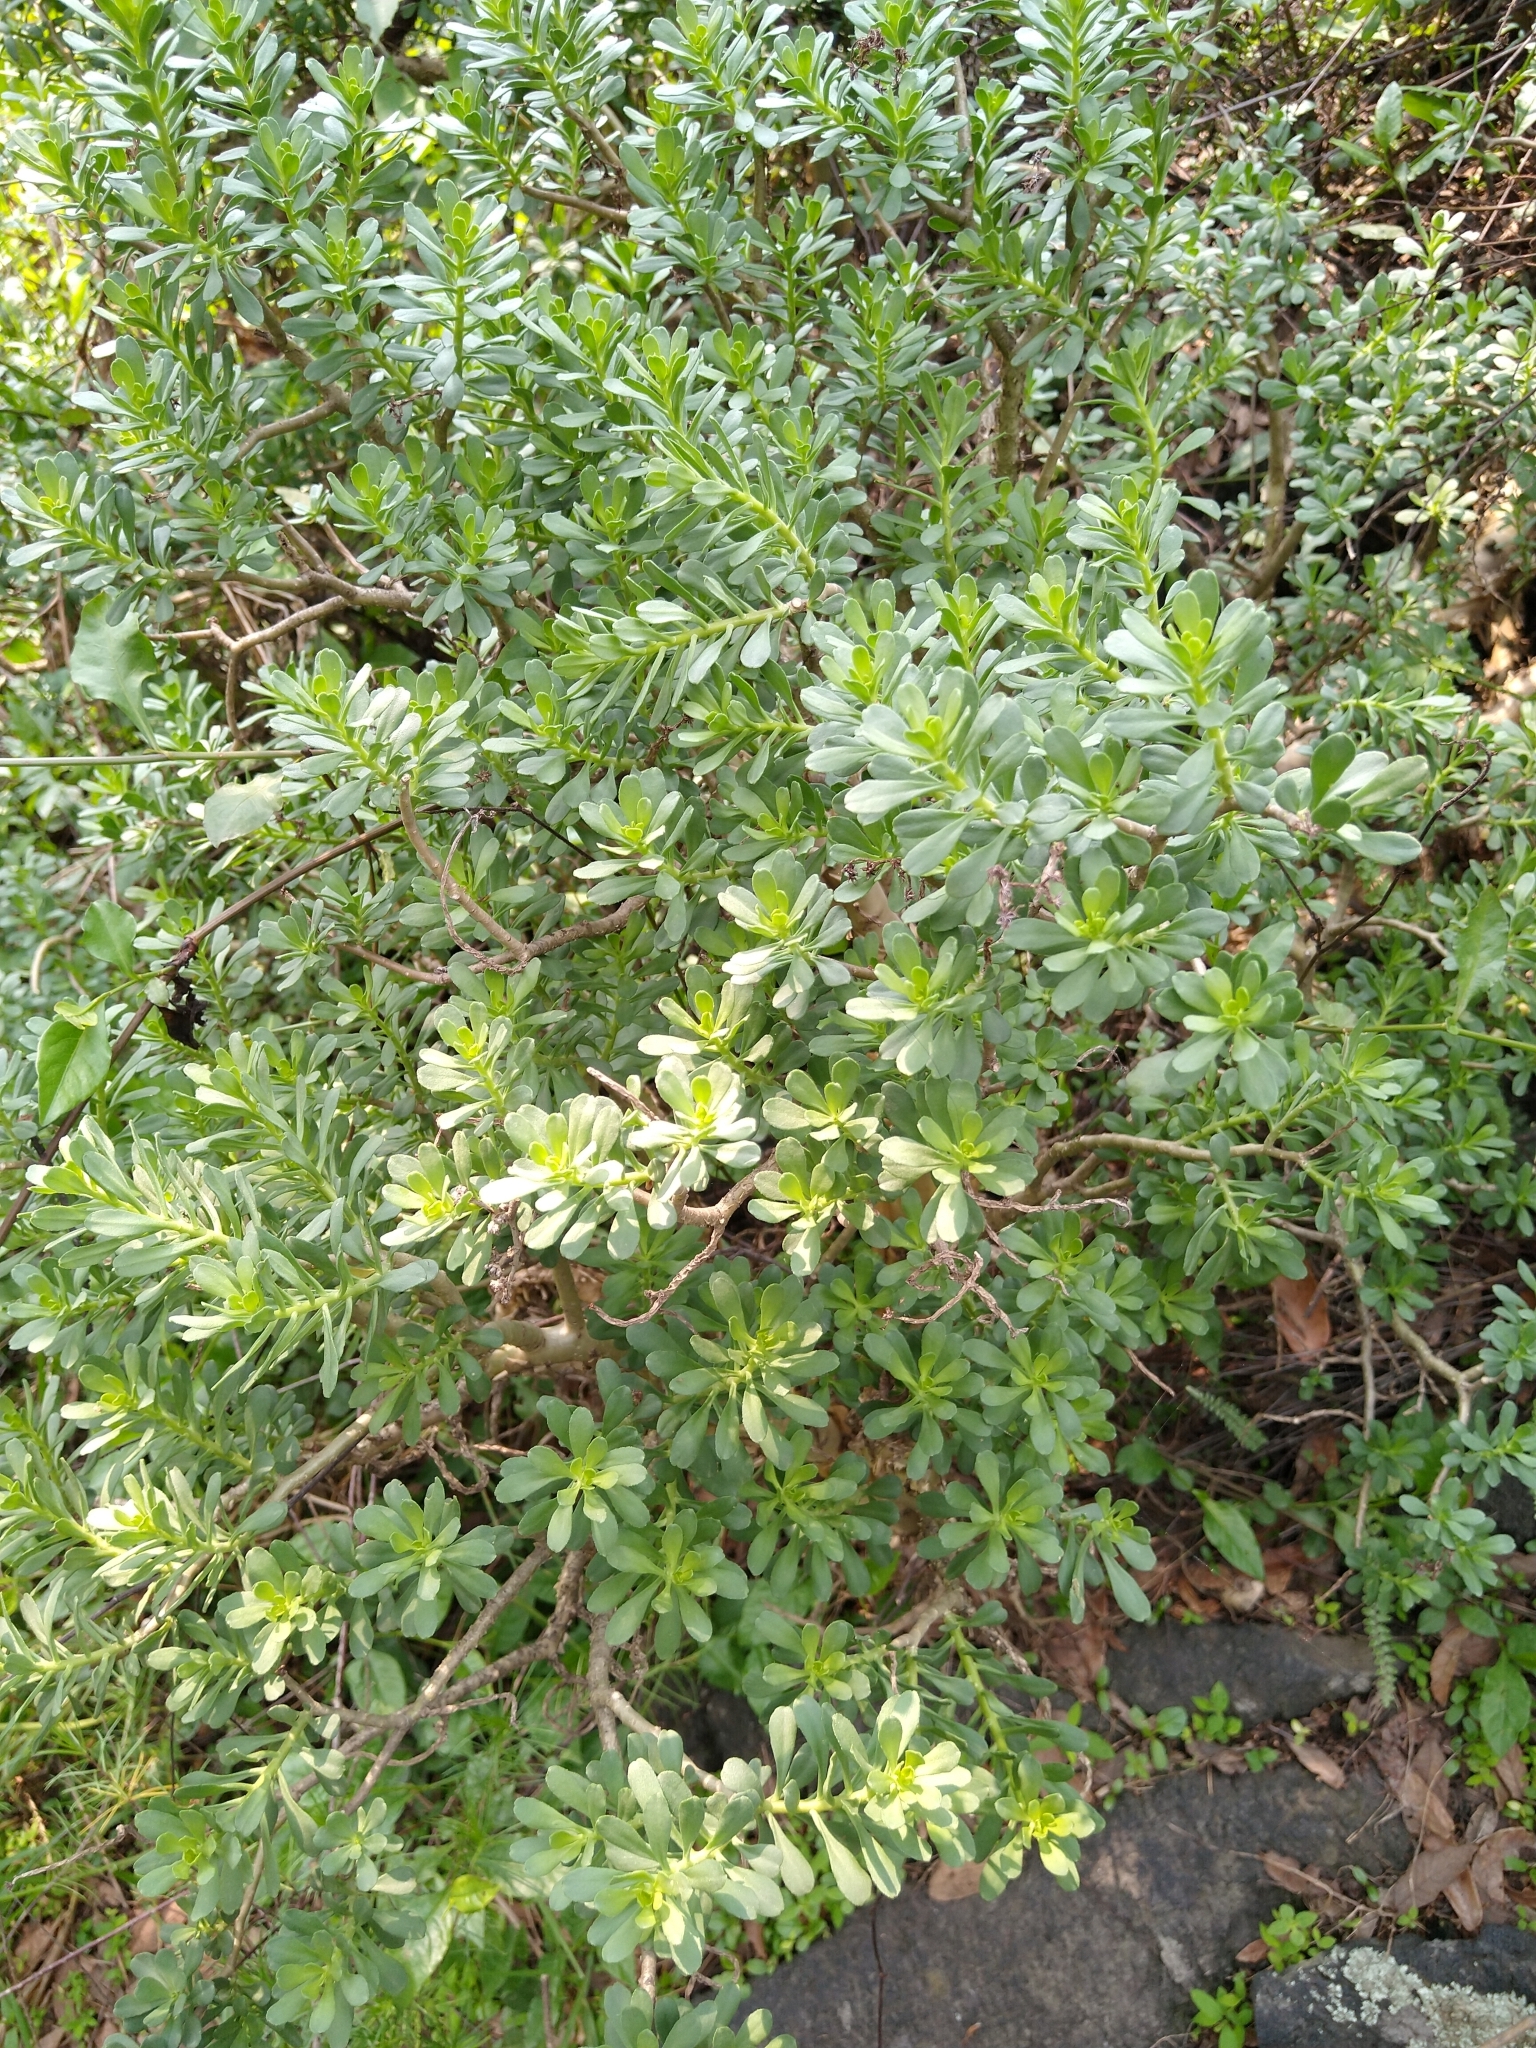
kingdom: Plantae
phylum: Tracheophyta
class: Magnoliopsida
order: Saxifragales
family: Crassulaceae
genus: Sedum
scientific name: Sedum oxypetalum
